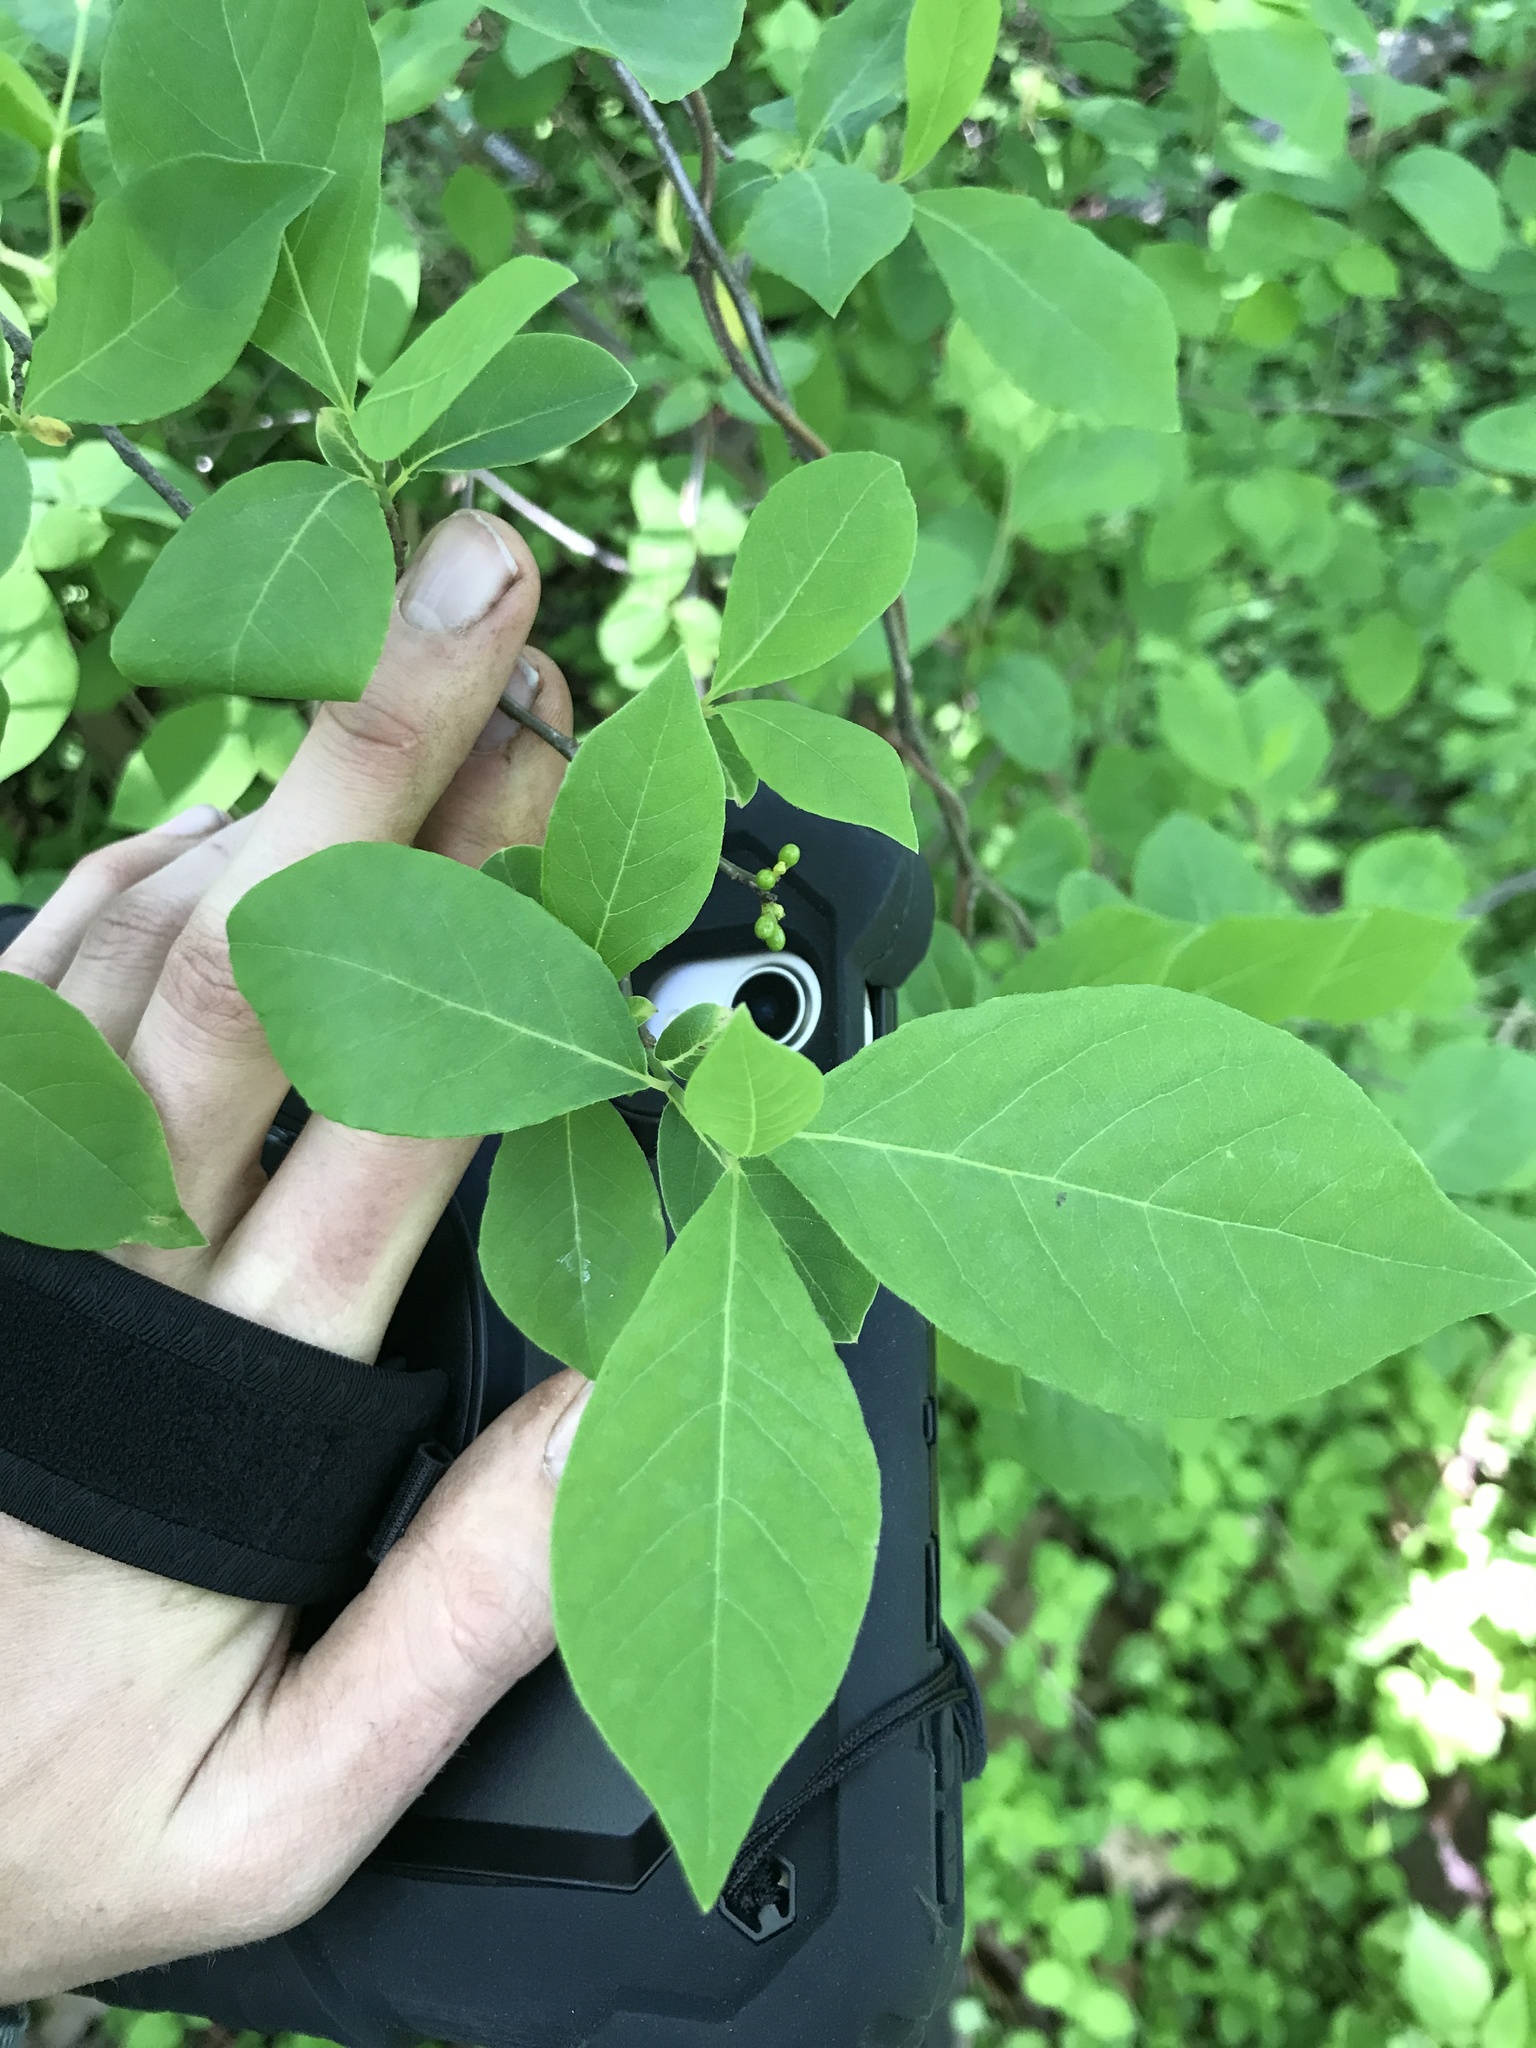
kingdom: Plantae
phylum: Tracheophyta
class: Magnoliopsida
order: Laurales
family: Lauraceae
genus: Lindera
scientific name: Lindera benzoin
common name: Spicebush
